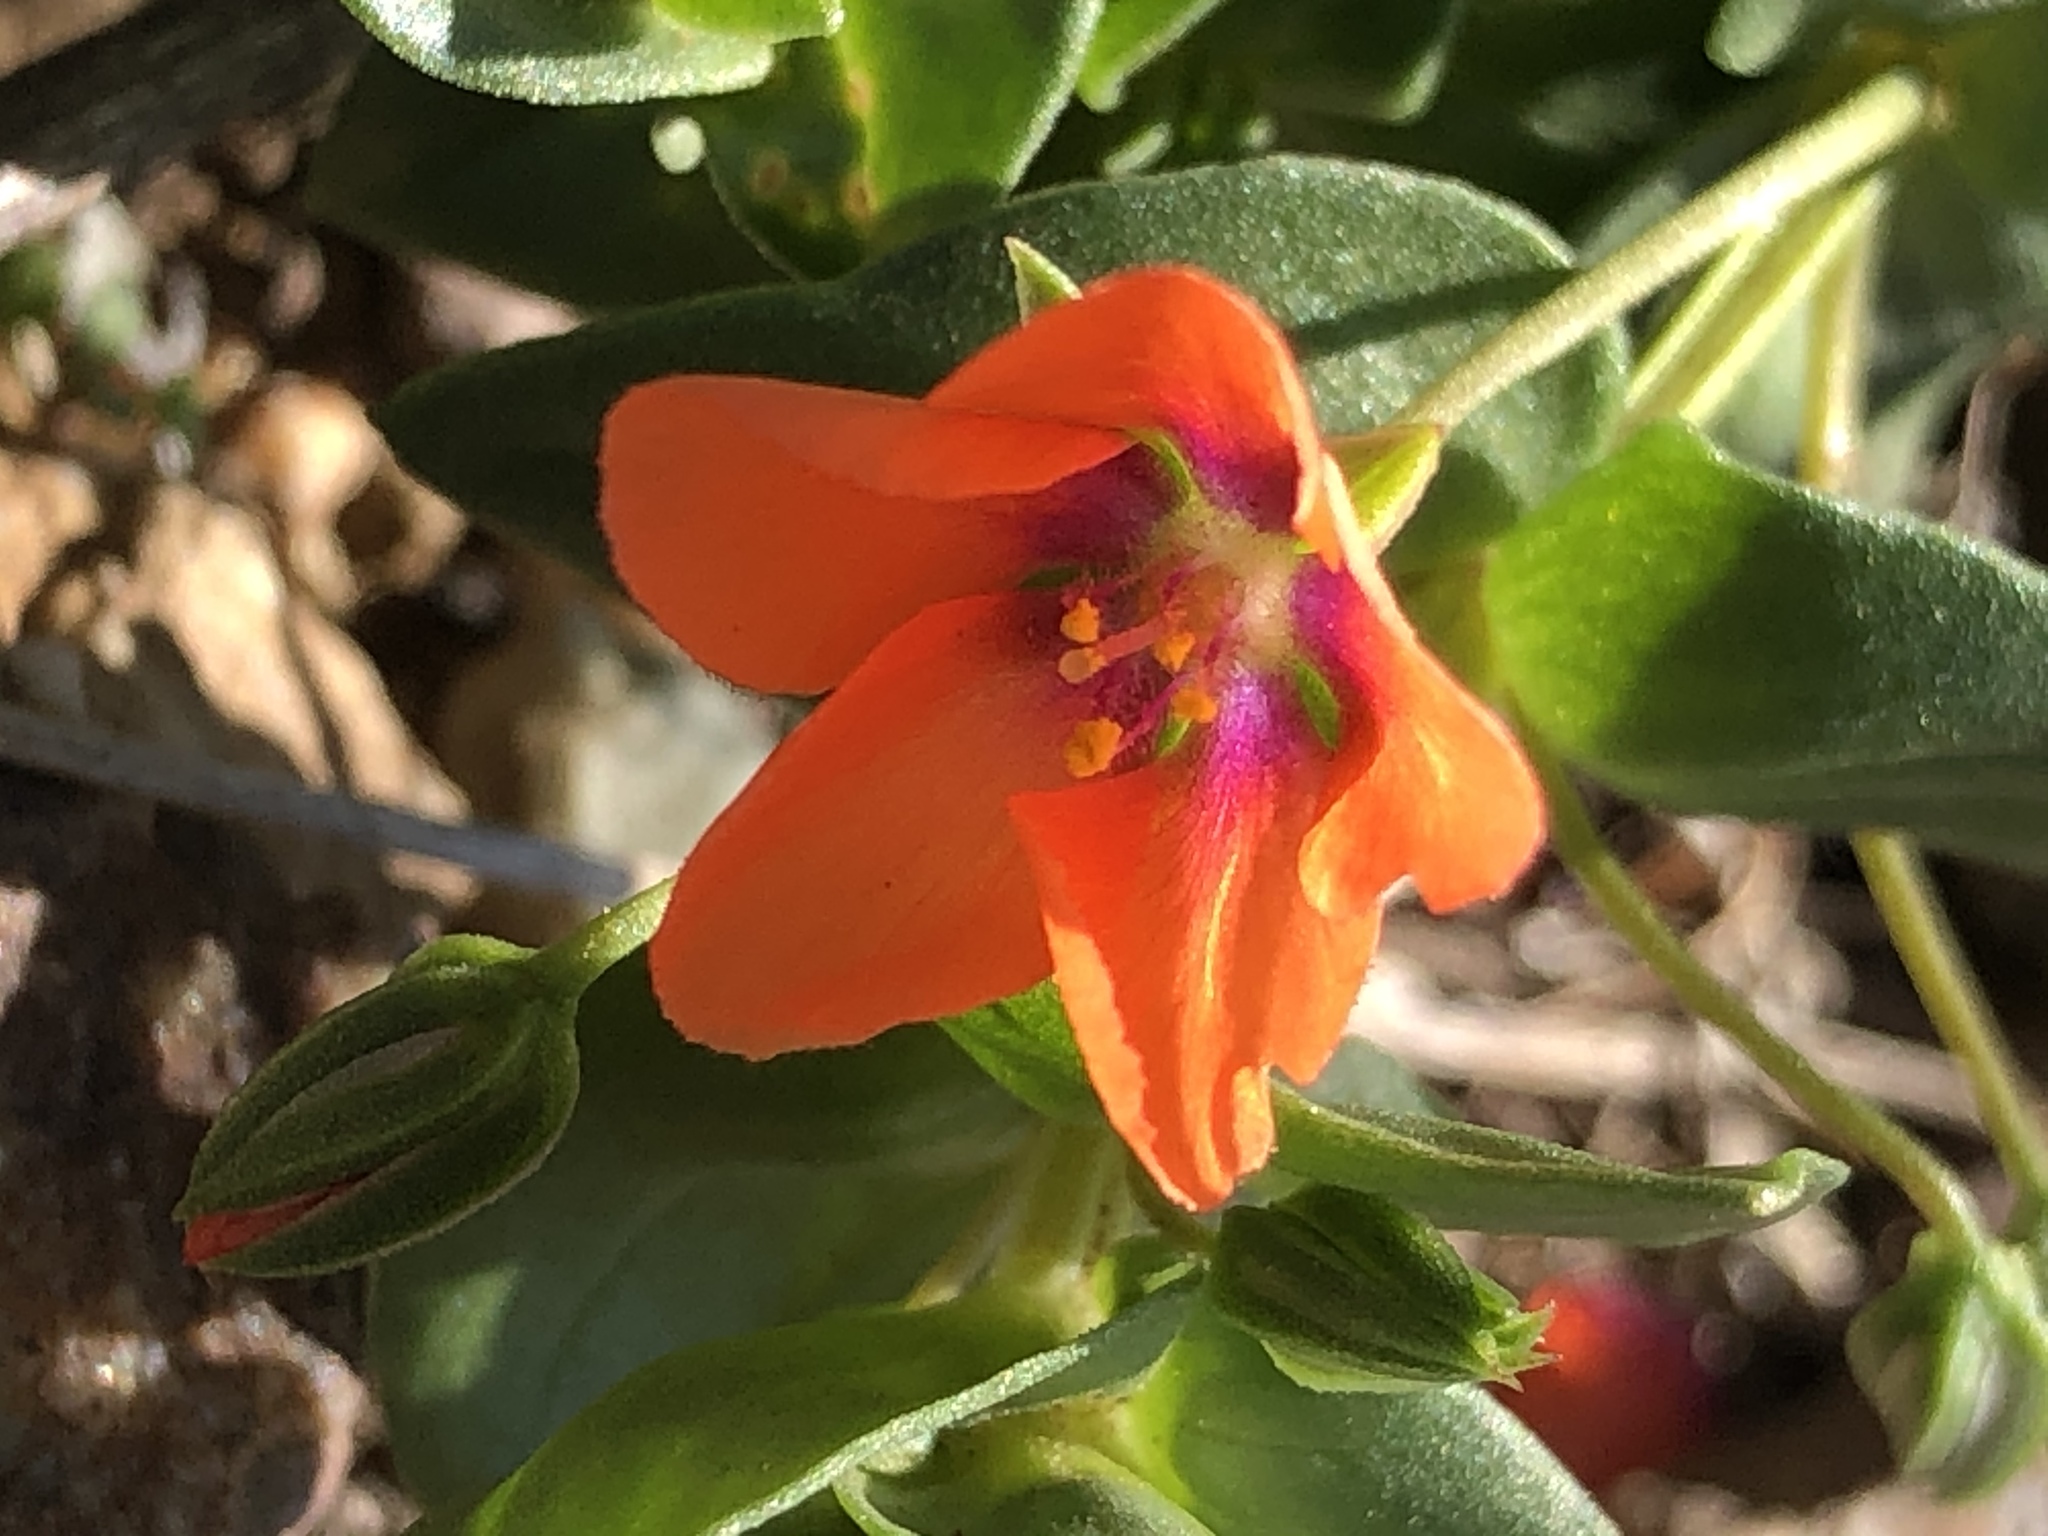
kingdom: Plantae
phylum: Tracheophyta
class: Magnoliopsida
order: Ericales
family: Primulaceae
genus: Lysimachia
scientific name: Lysimachia arvensis
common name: Scarlet pimpernel
